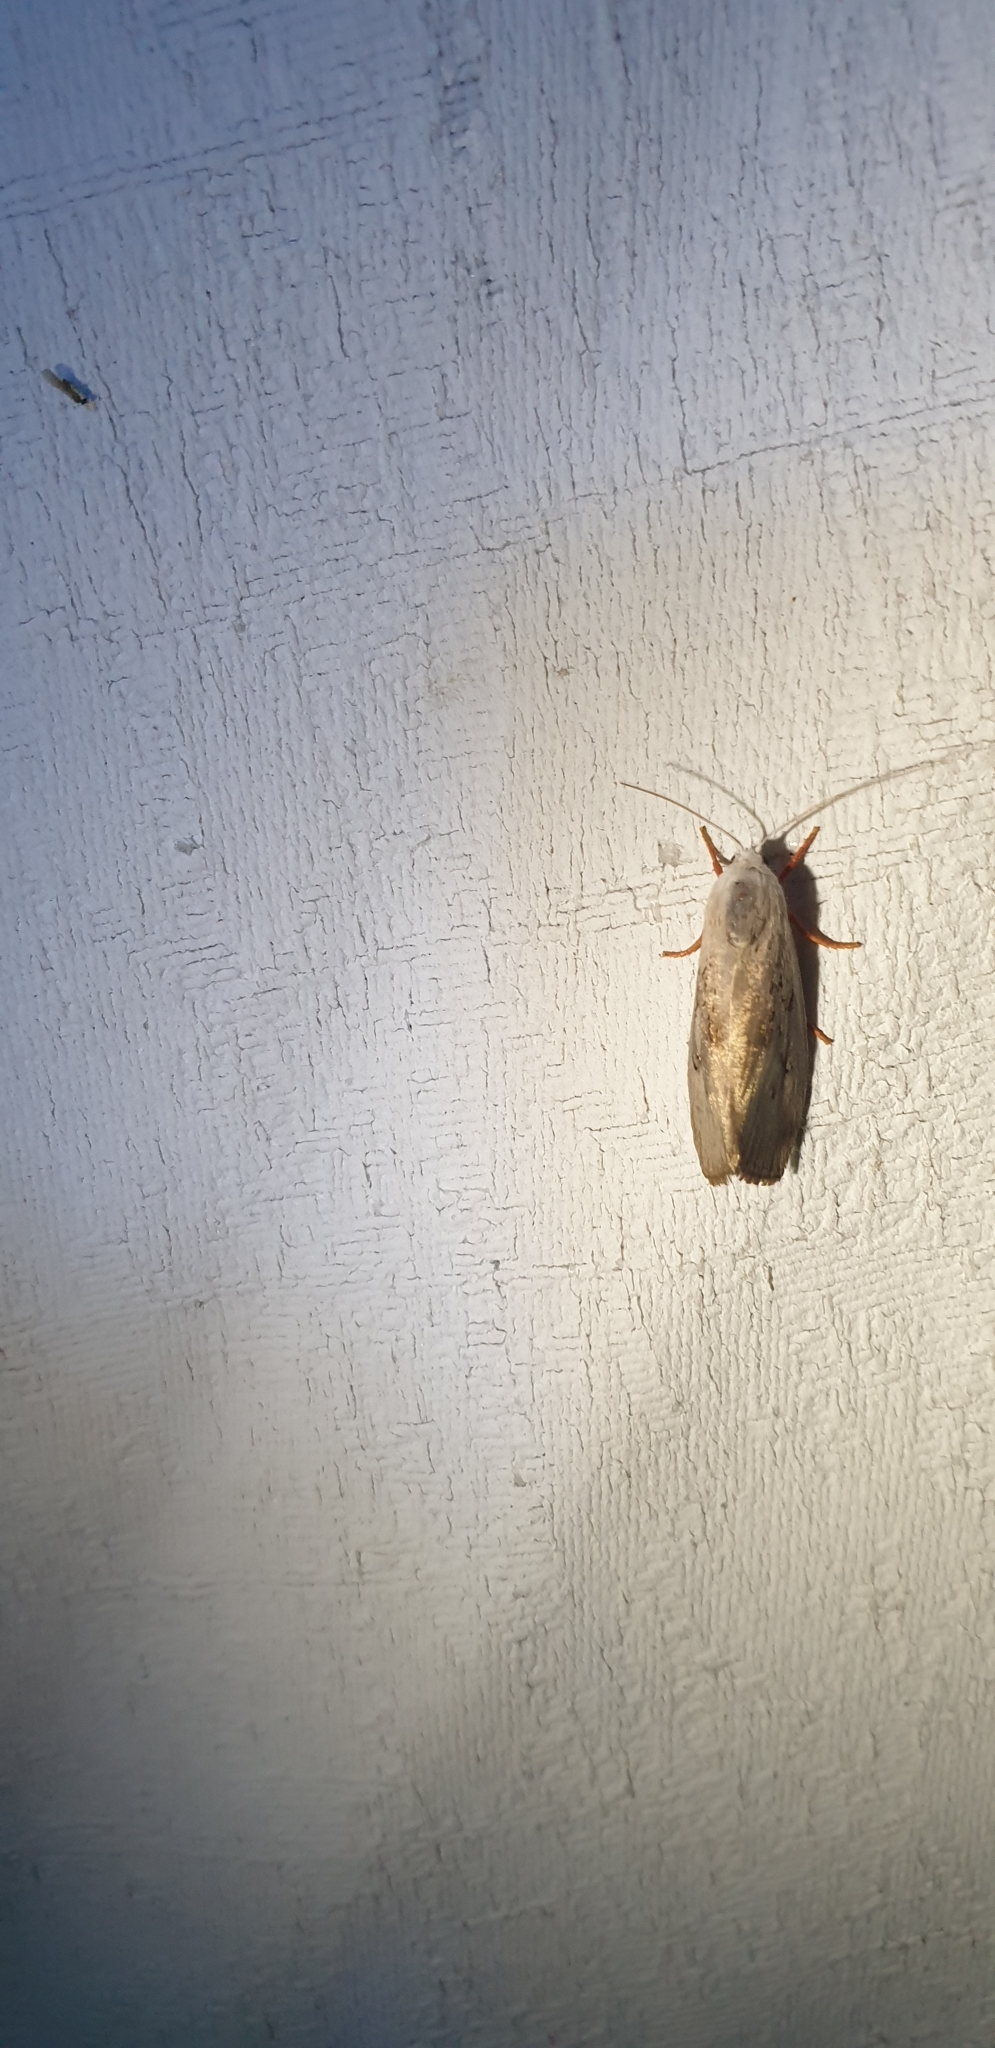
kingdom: Animalia
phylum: Arthropoda
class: Insecta
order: Lepidoptera
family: Xyloryctidae
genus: Brachybelistis
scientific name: Brachybelistis neomorpha
